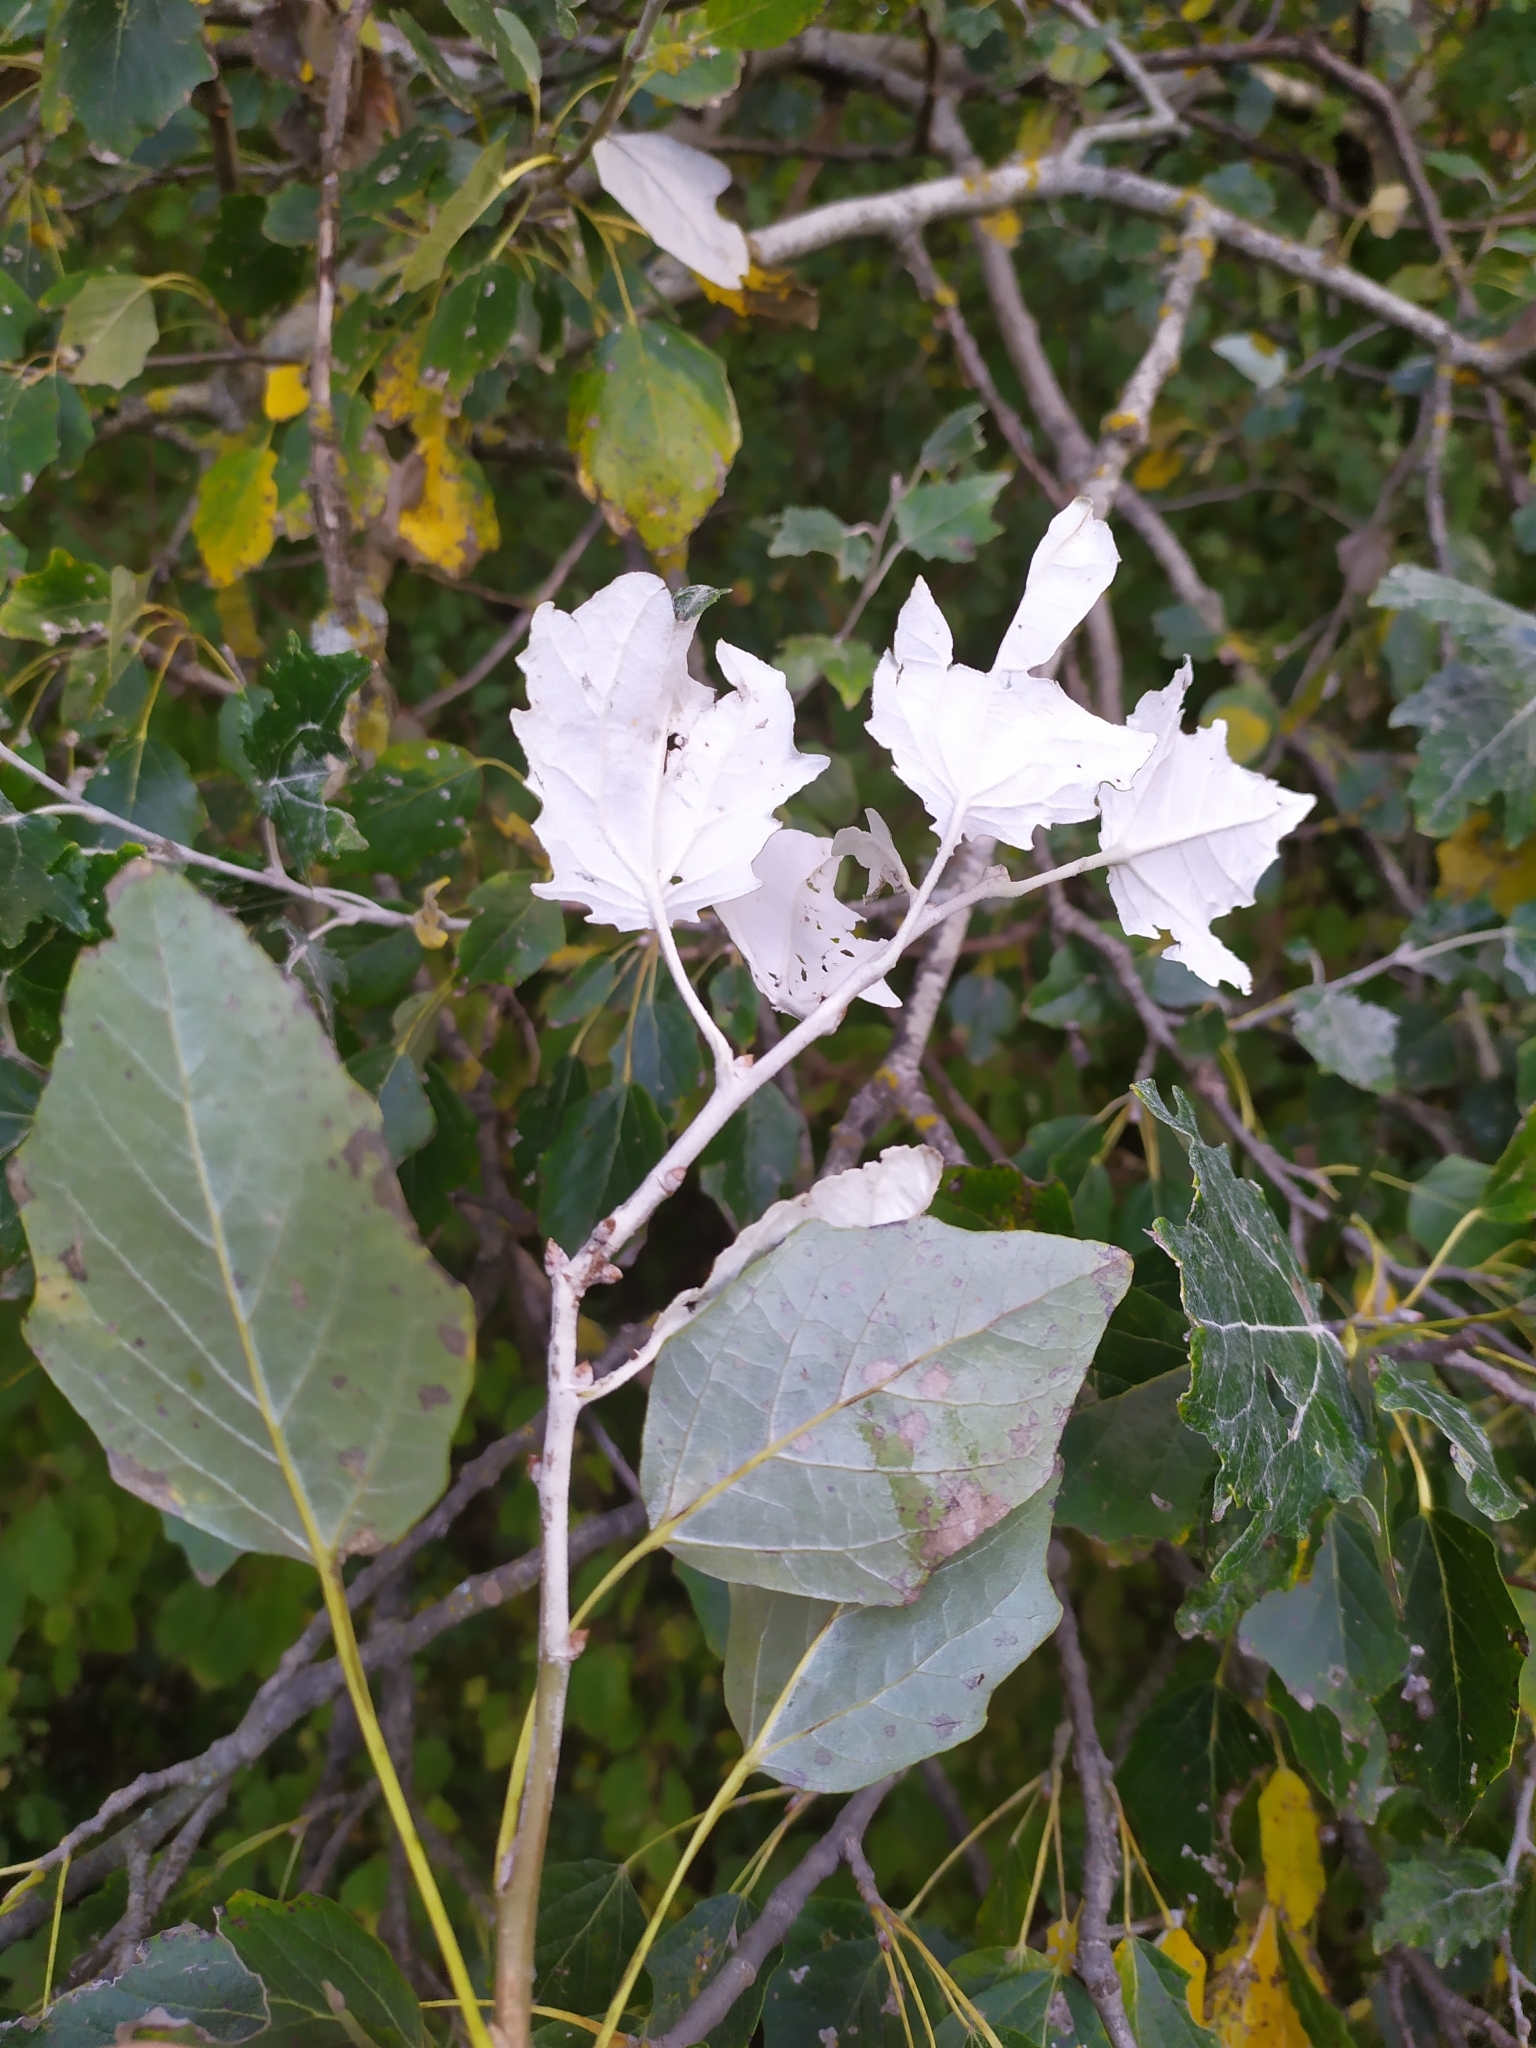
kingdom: Plantae
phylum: Tracheophyta
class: Magnoliopsida
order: Malpighiales
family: Salicaceae
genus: Populus
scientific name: Populus canescens
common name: Gray poplar
